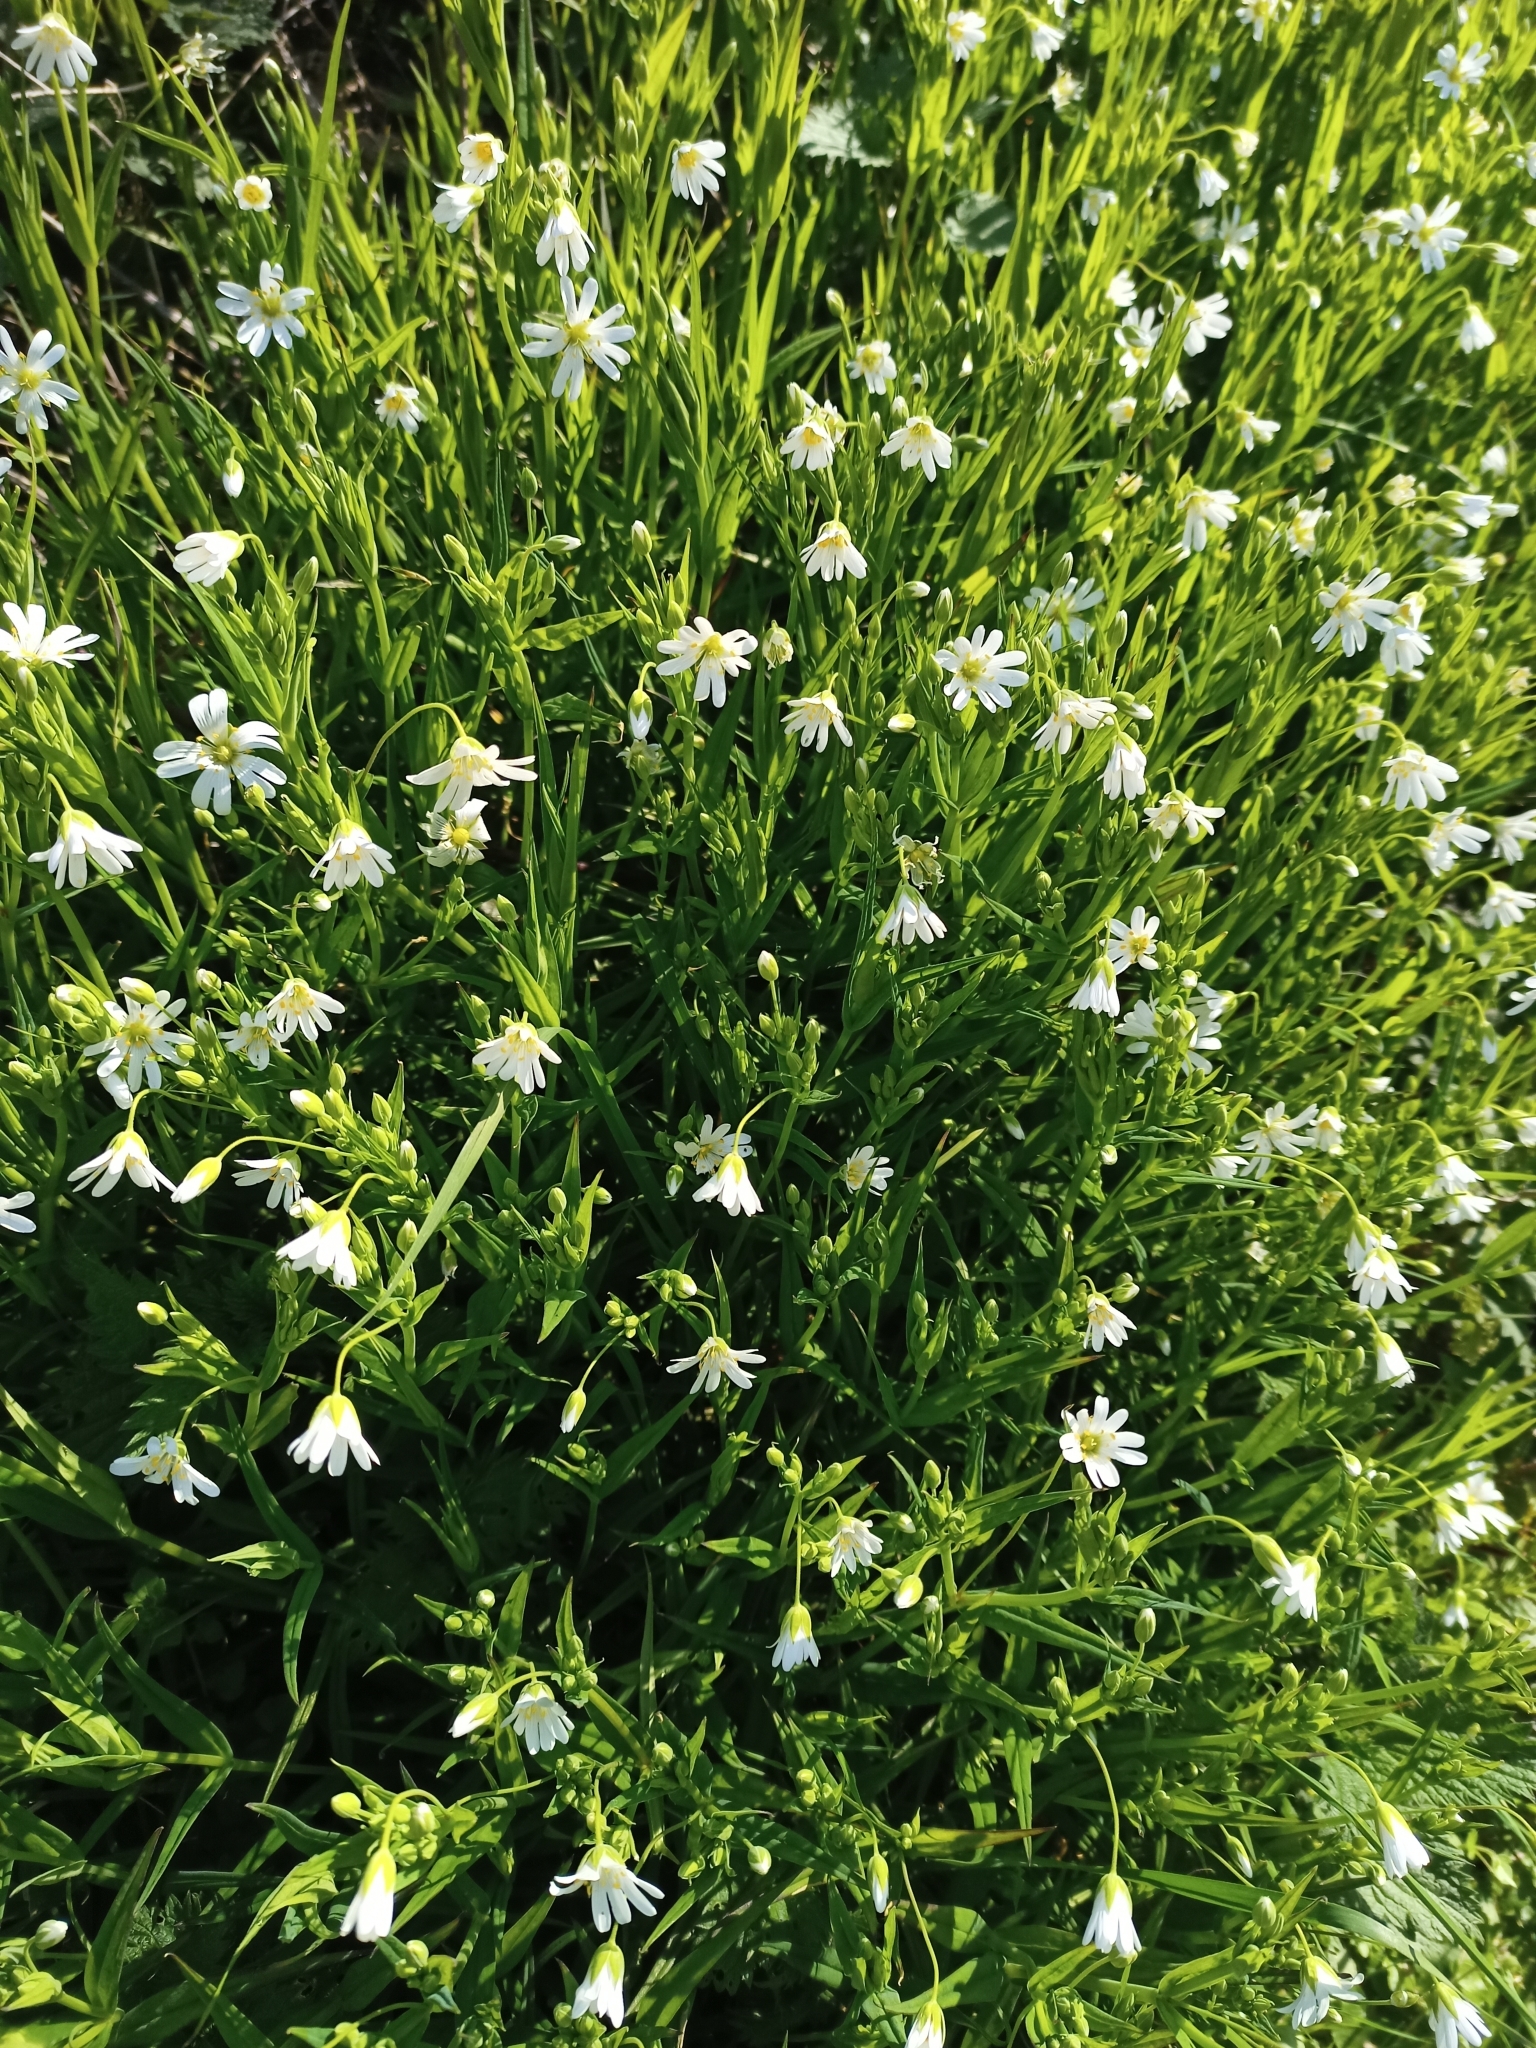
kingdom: Plantae
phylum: Tracheophyta
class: Magnoliopsida
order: Caryophyllales
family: Caryophyllaceae
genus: Rabelera
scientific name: Rabelera holostea
